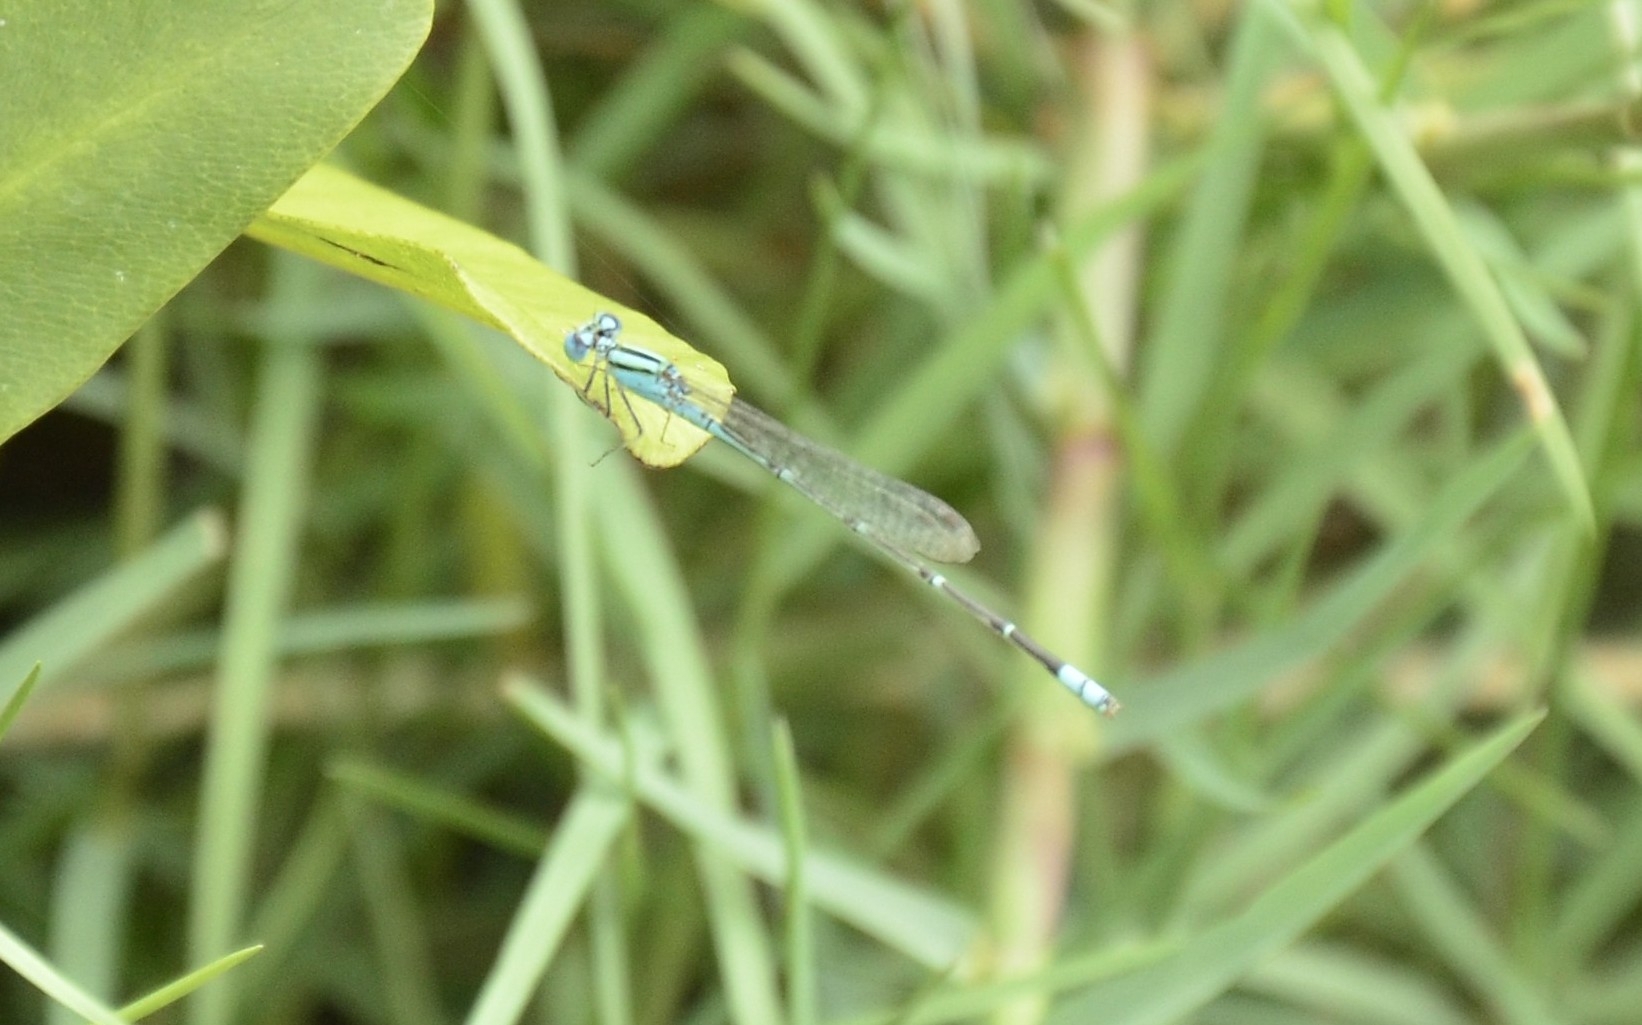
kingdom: Animalia
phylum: Arthropoda
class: Insecta
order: Odonata
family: Coenagrionidae
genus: Pseudagrion
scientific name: Pseudagrion microcephalum
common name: Blue riverdamsel
